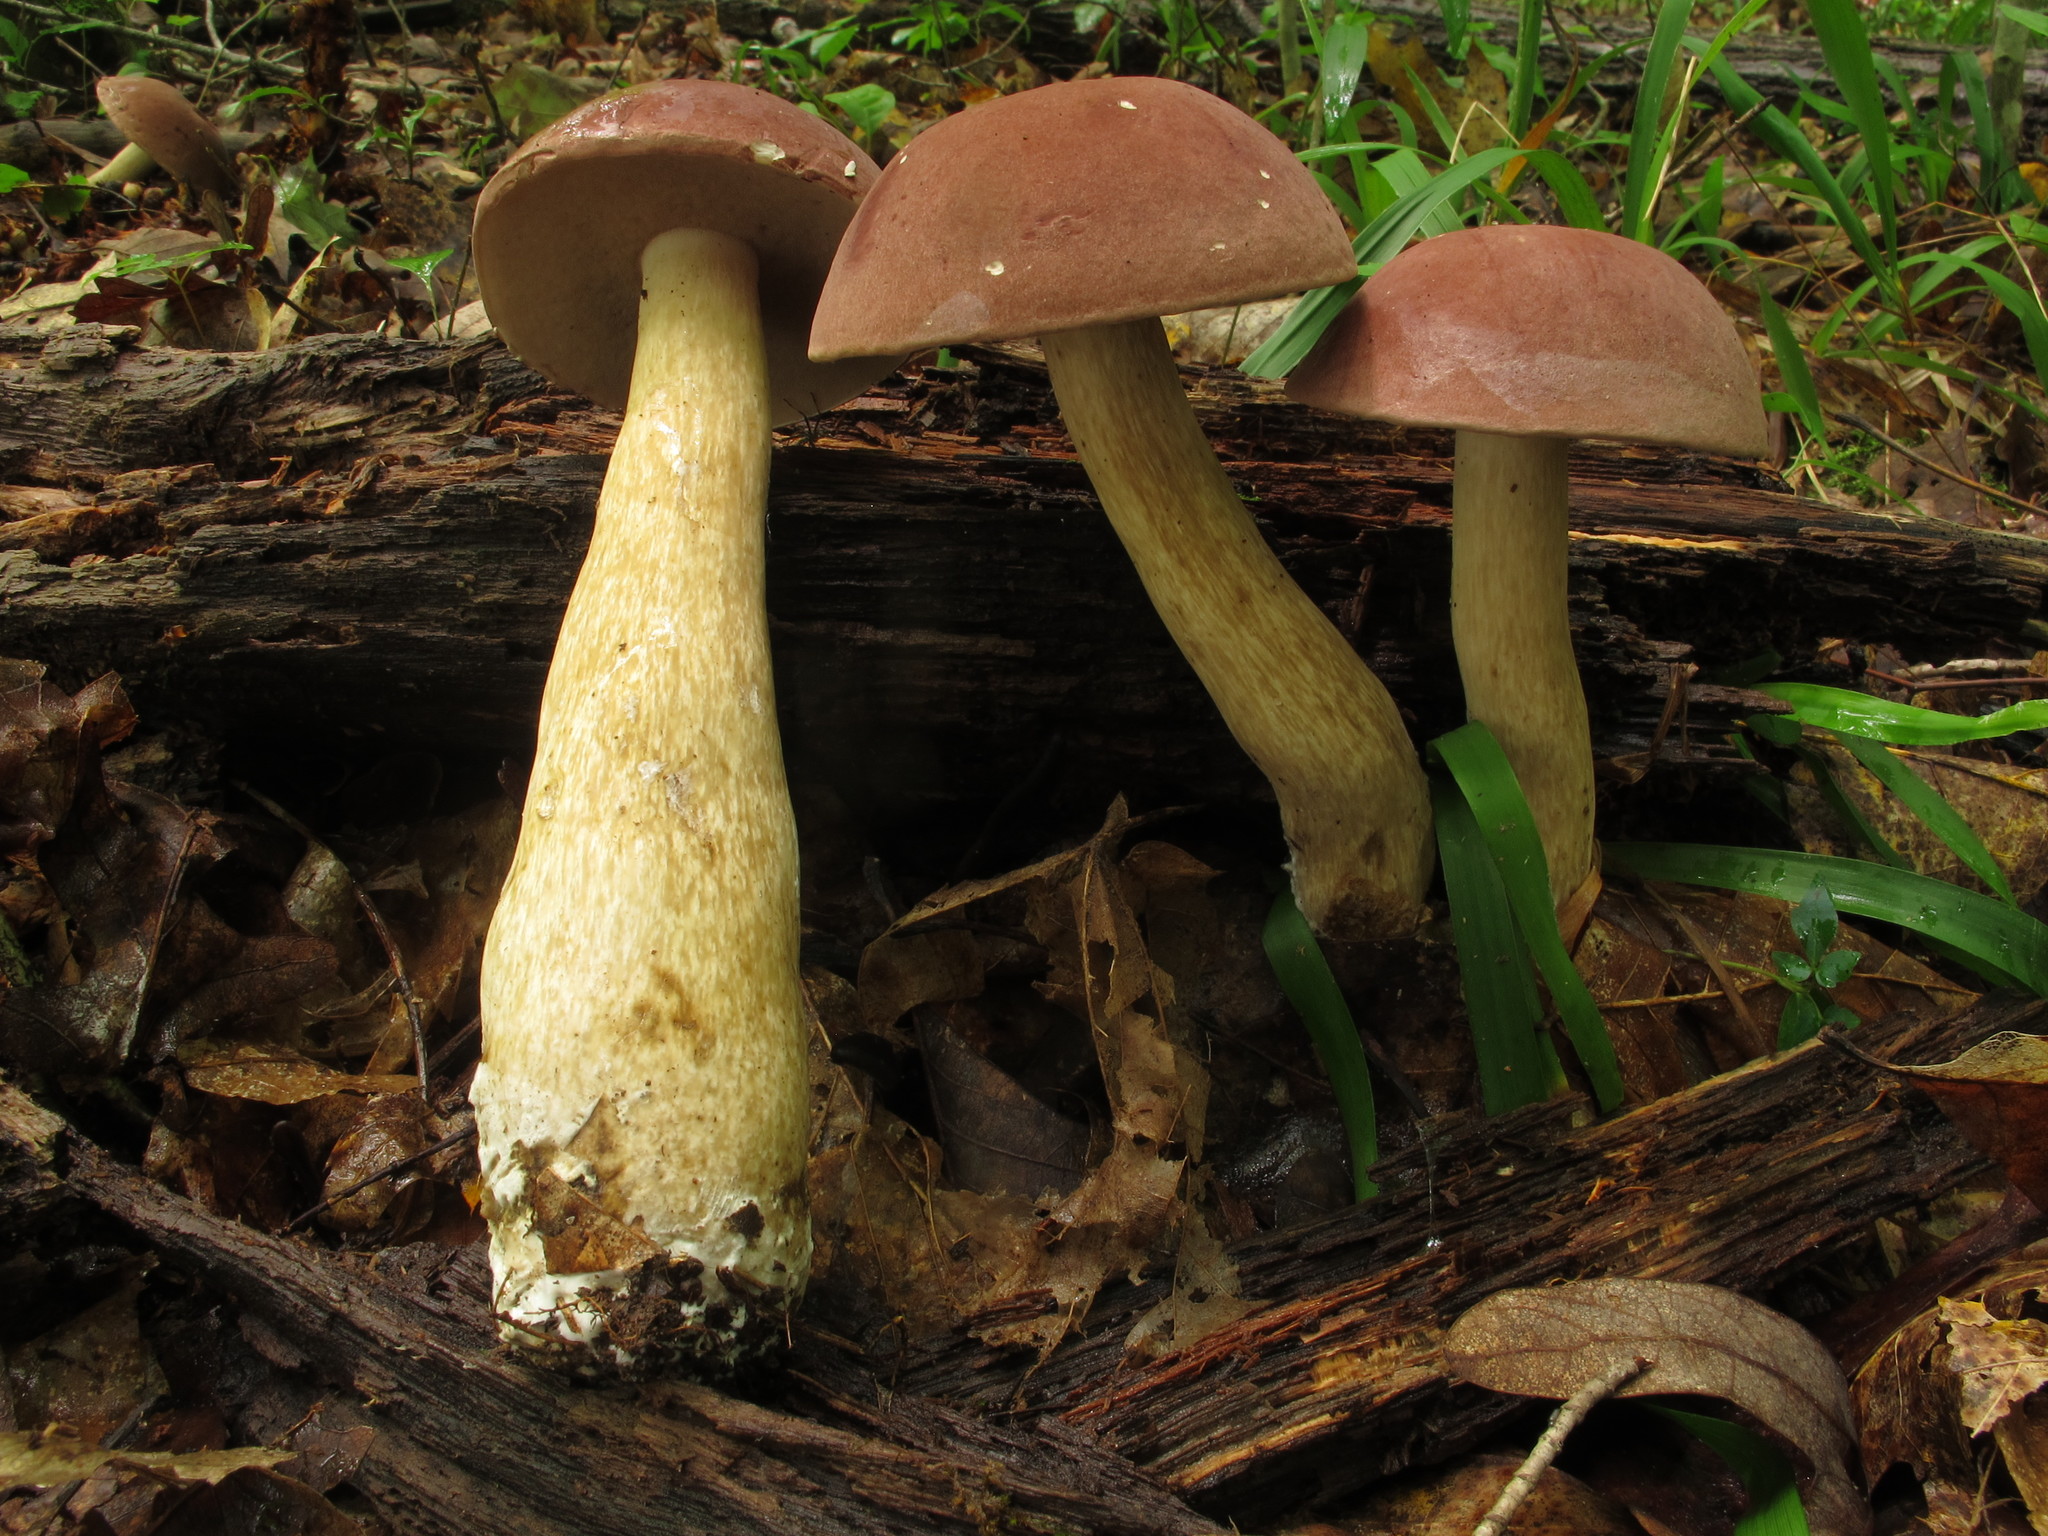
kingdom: Fungi
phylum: Basidiomycota
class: Agaricomycetes
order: Boletales
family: Boletaceae
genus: Tylopilus
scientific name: Tylopilus rubrobrunneus
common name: Reddish brown bitter bolete
